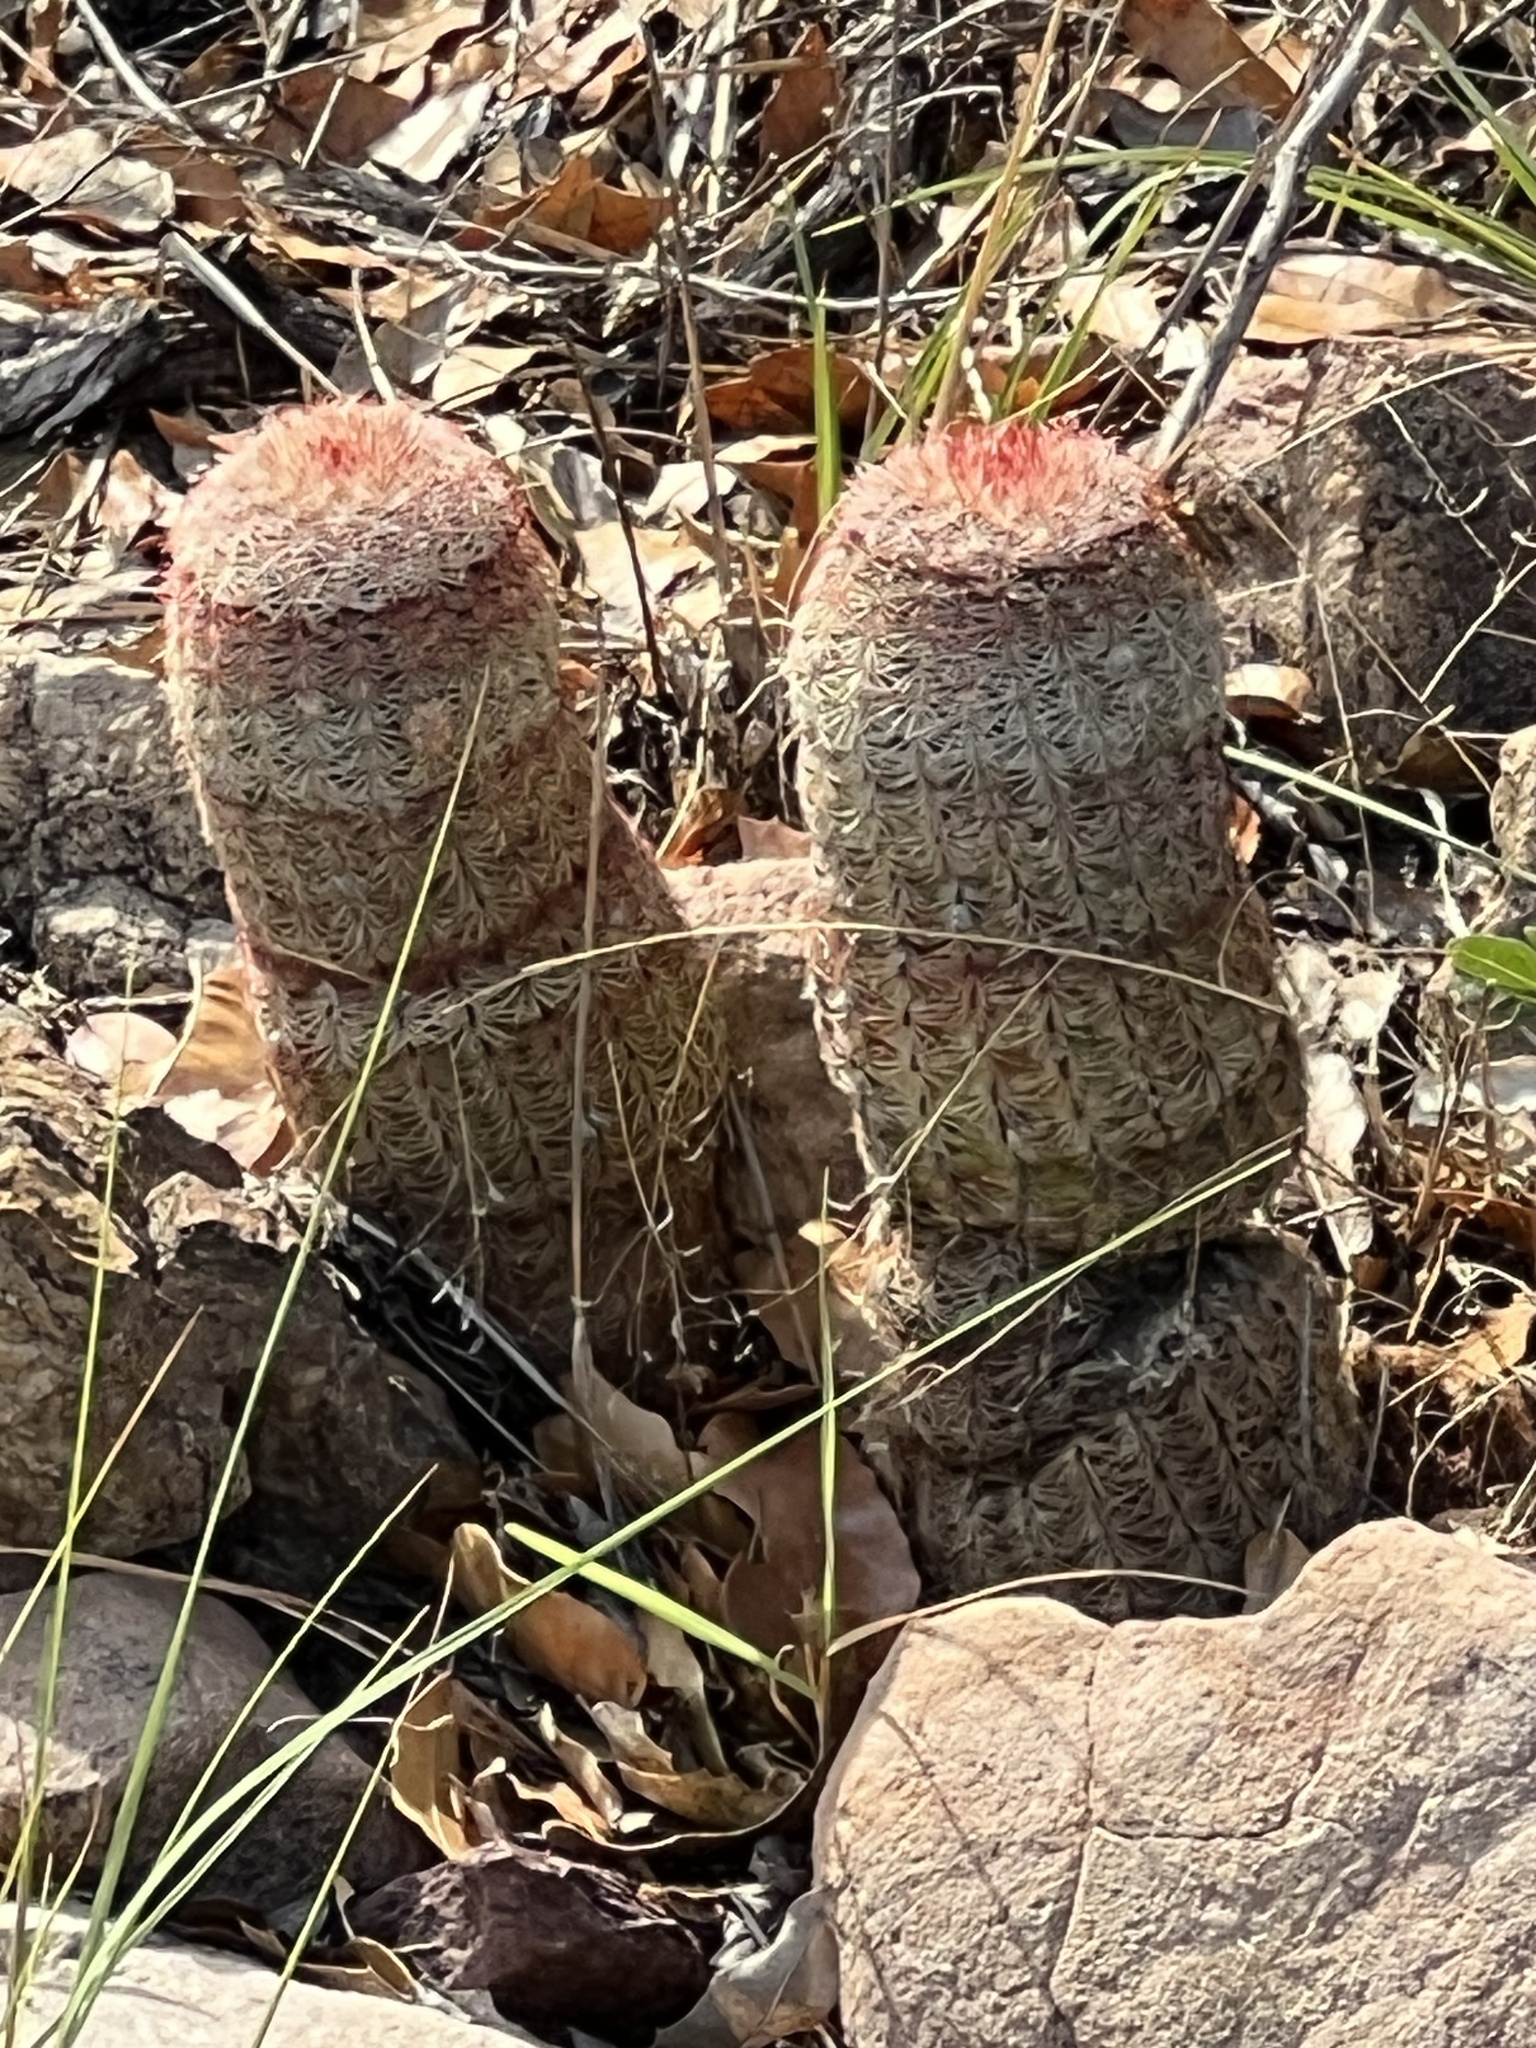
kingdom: Plantae
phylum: Tracheophyta
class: Magnoliopsida
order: Caryophyllales
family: Cactaceae
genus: Echinocereus
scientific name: Echinocereus rigidissimus
